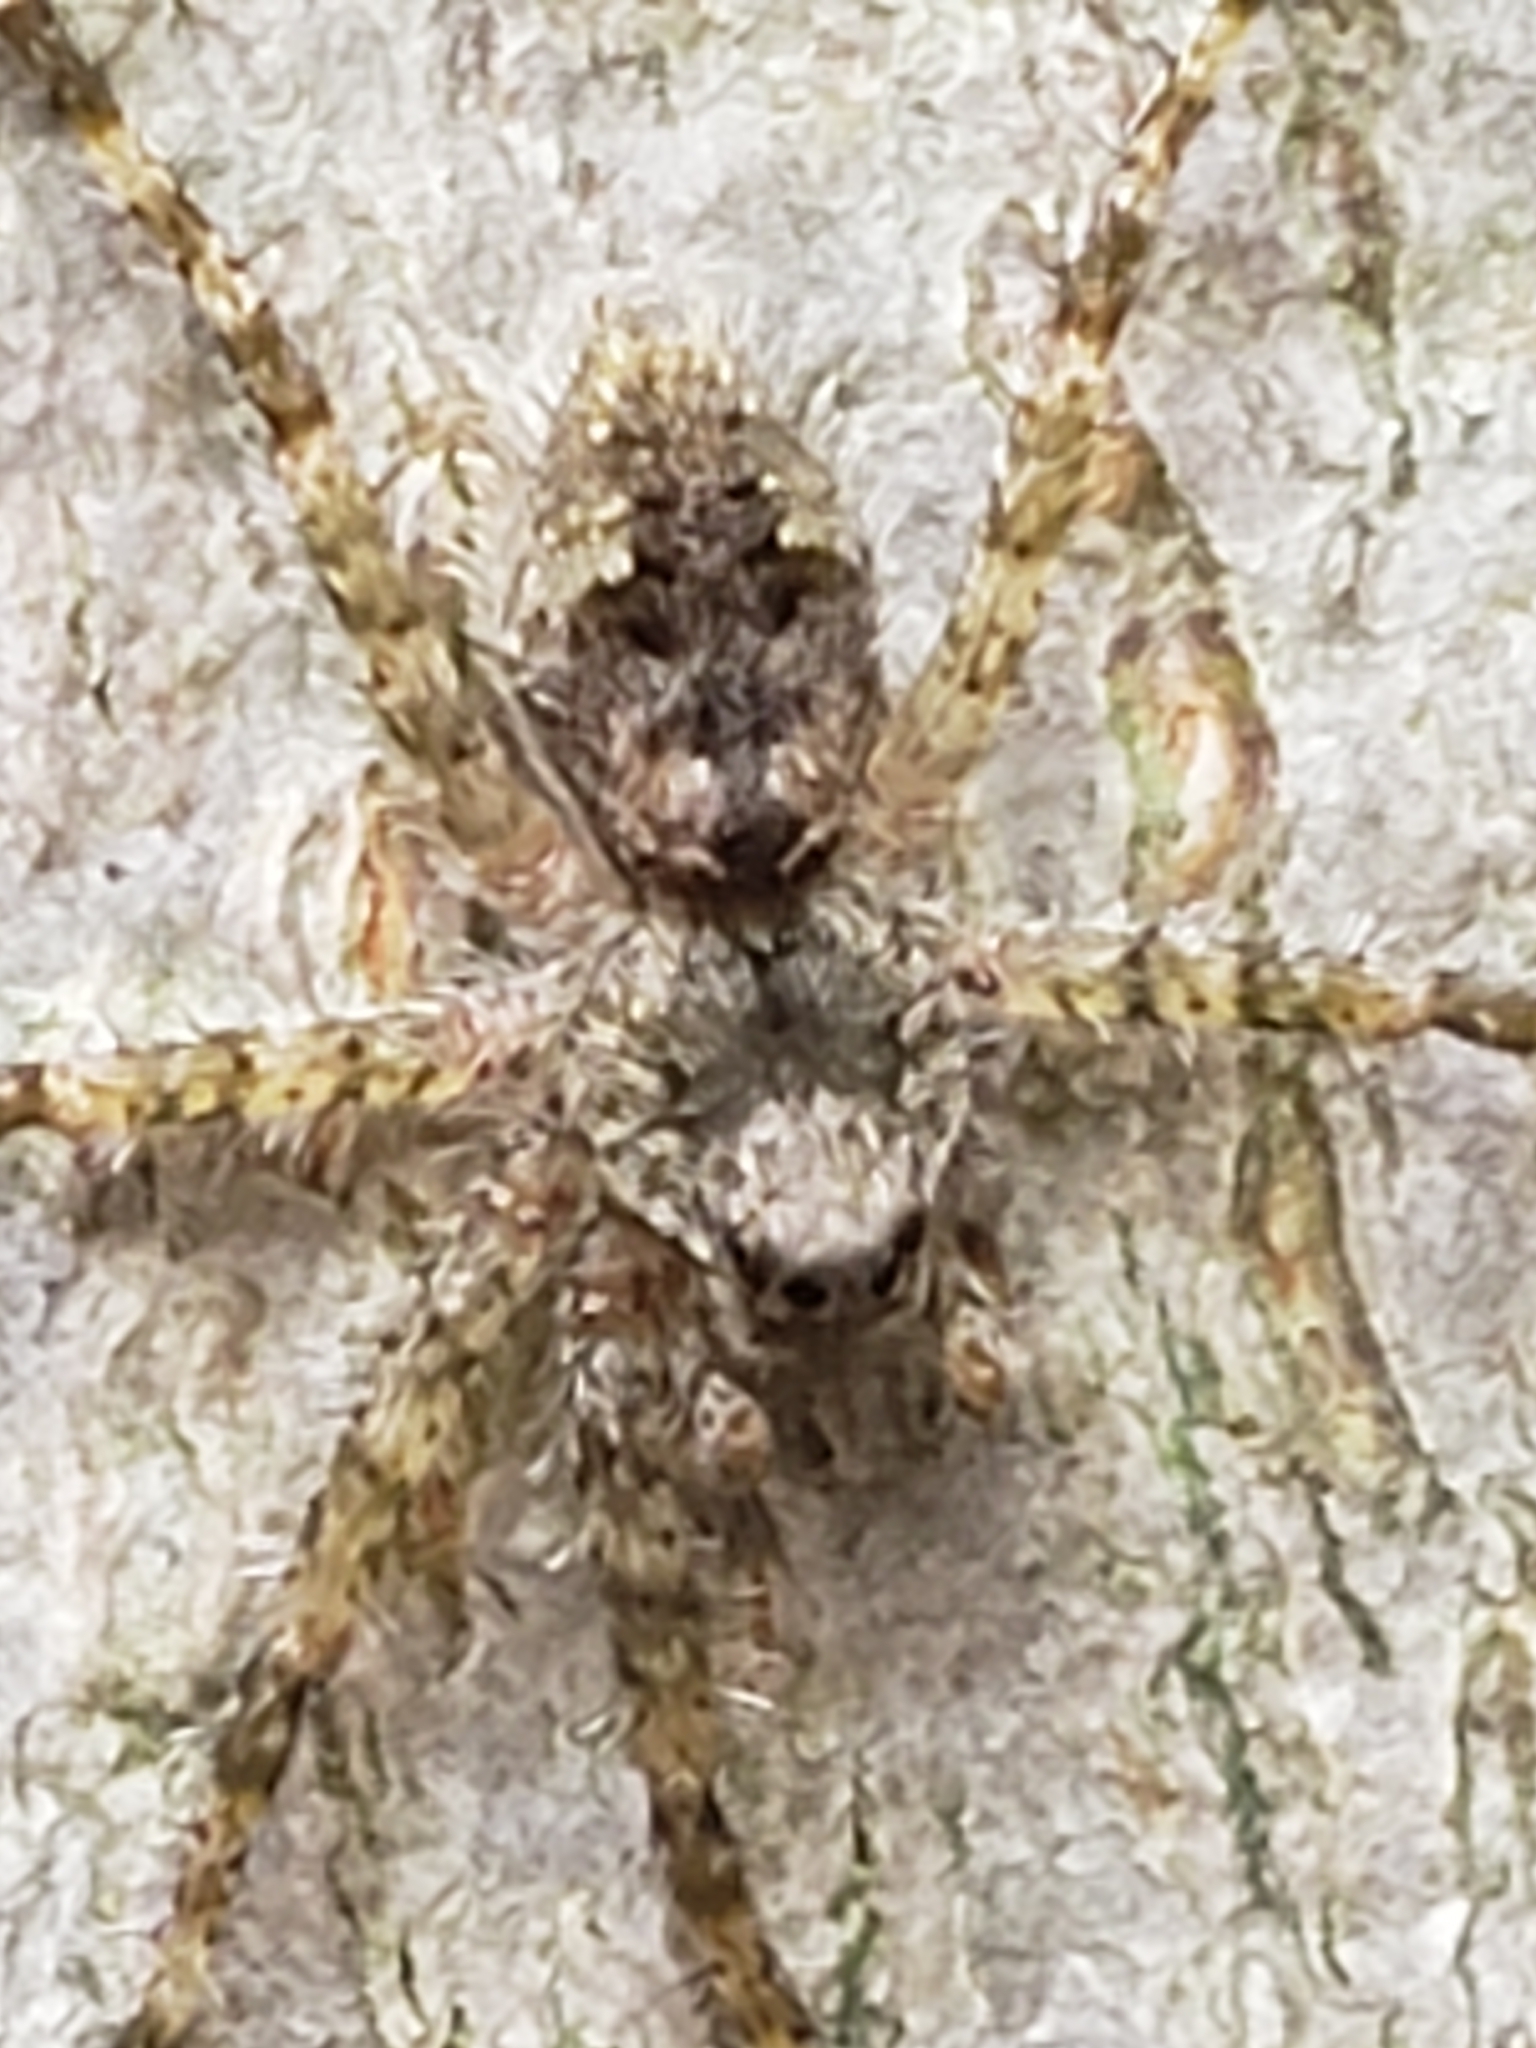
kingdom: Animalia
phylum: Arthropoda
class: Arachnida
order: Araneae
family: Pisauridae
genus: Dolomedes
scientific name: Dolomedes albineus
